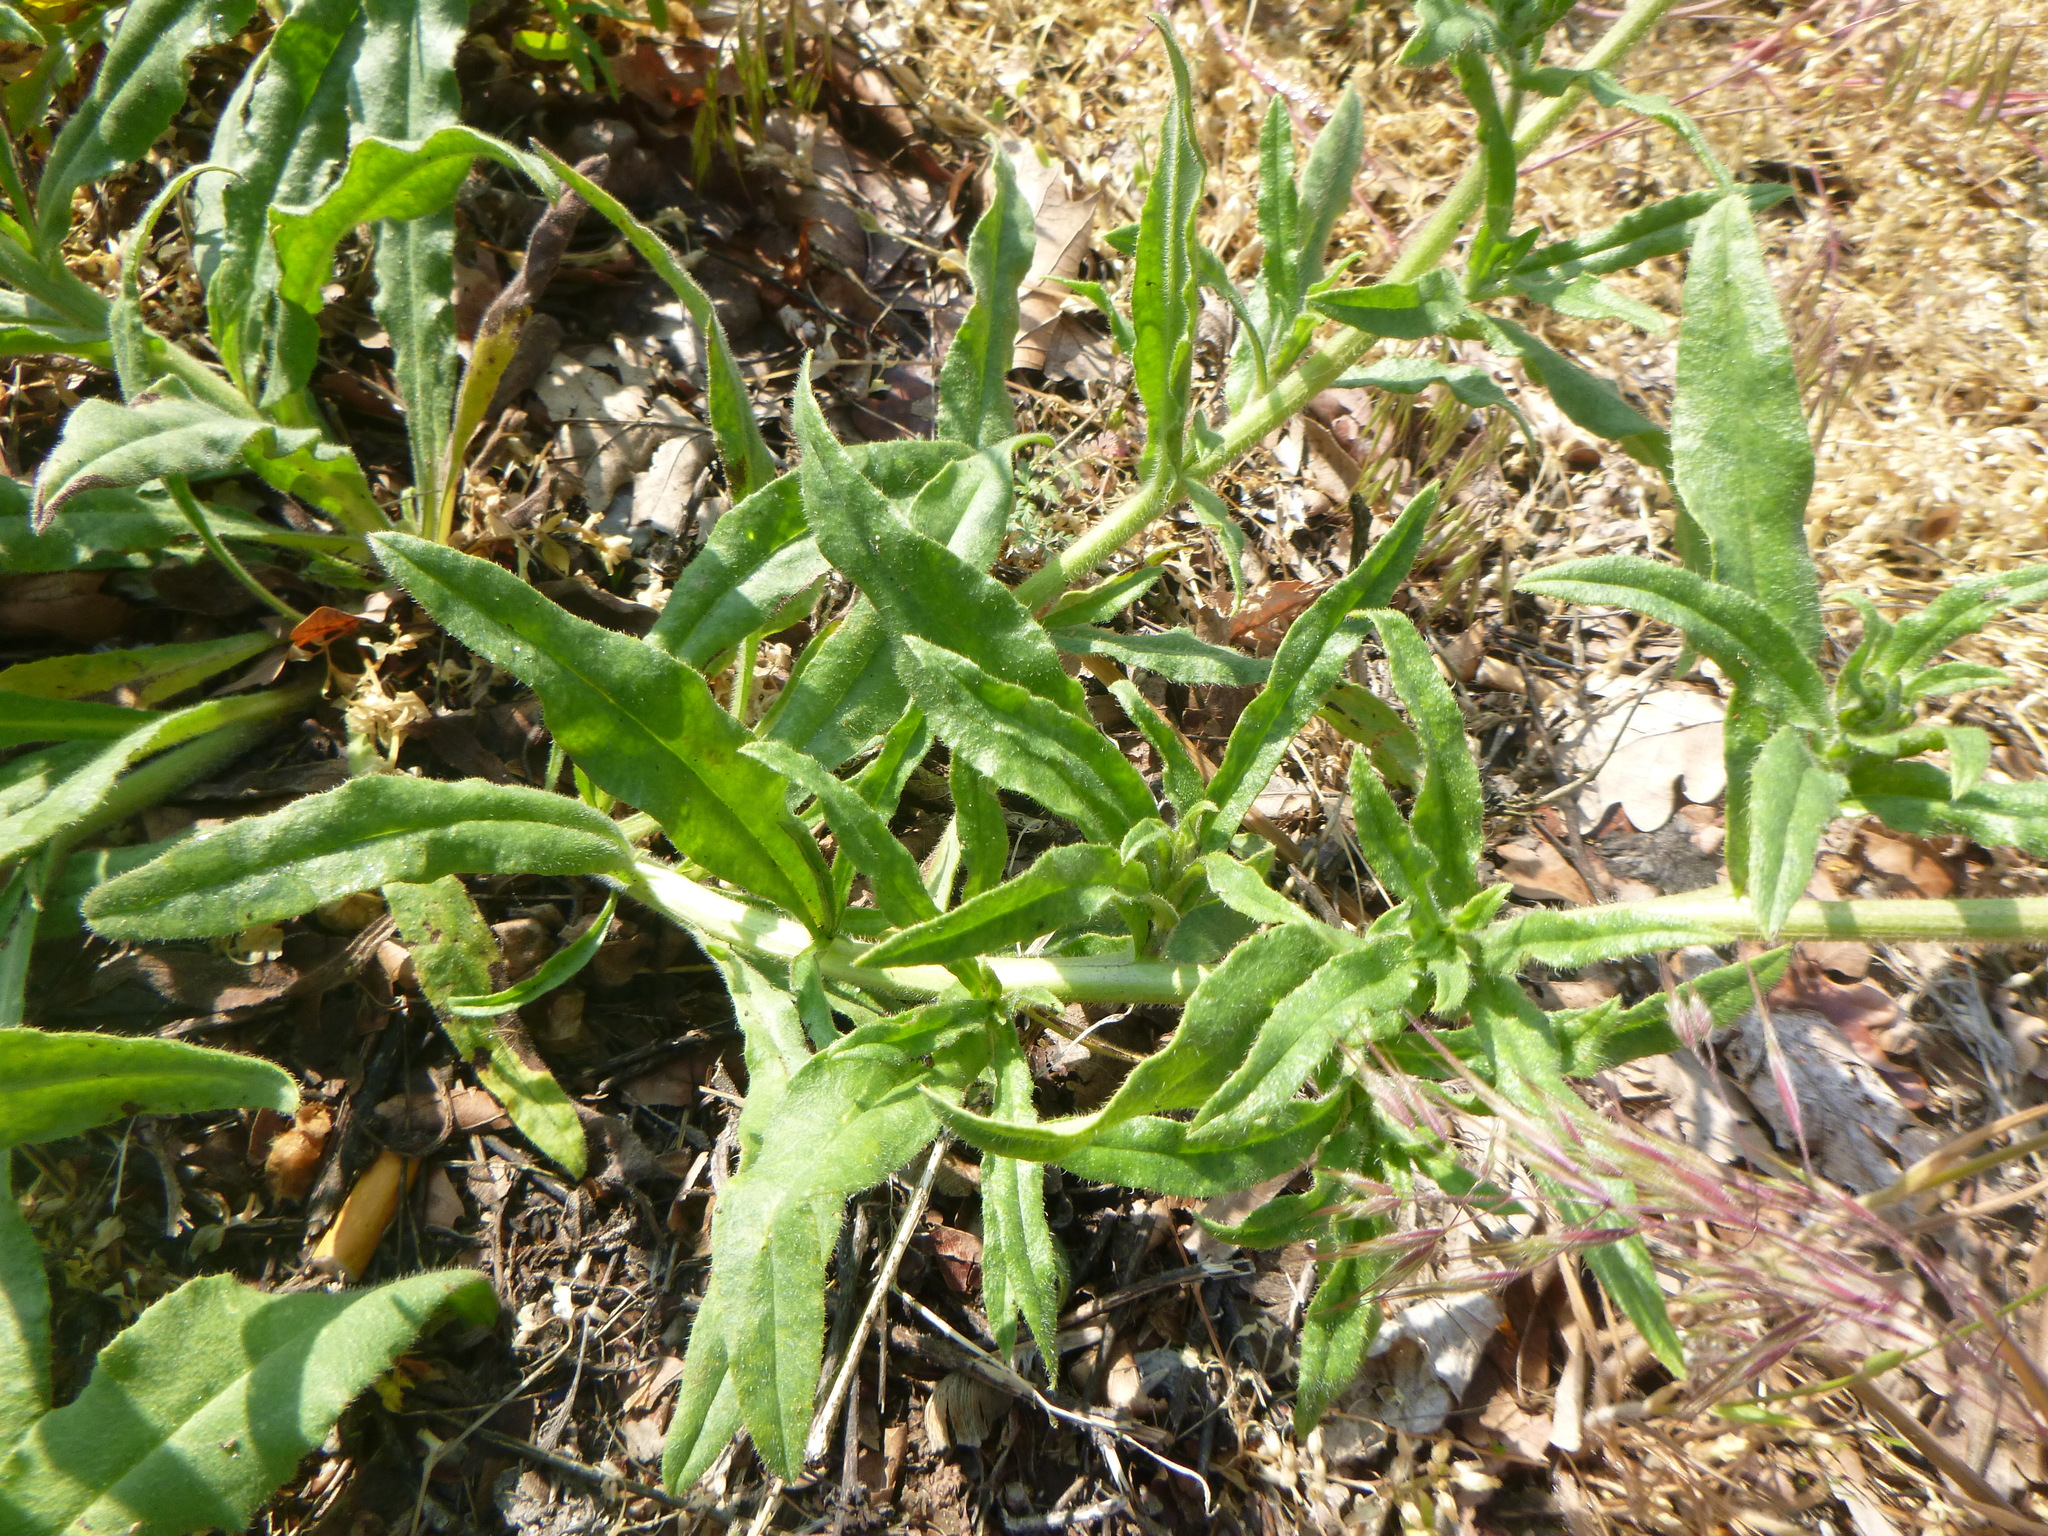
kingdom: Plantae
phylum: Tracheophyta
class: Magnoliopsida
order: Boraginales
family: Boraginaceae
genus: Anchusa
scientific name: Anchusa officinalis
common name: Alkanet
